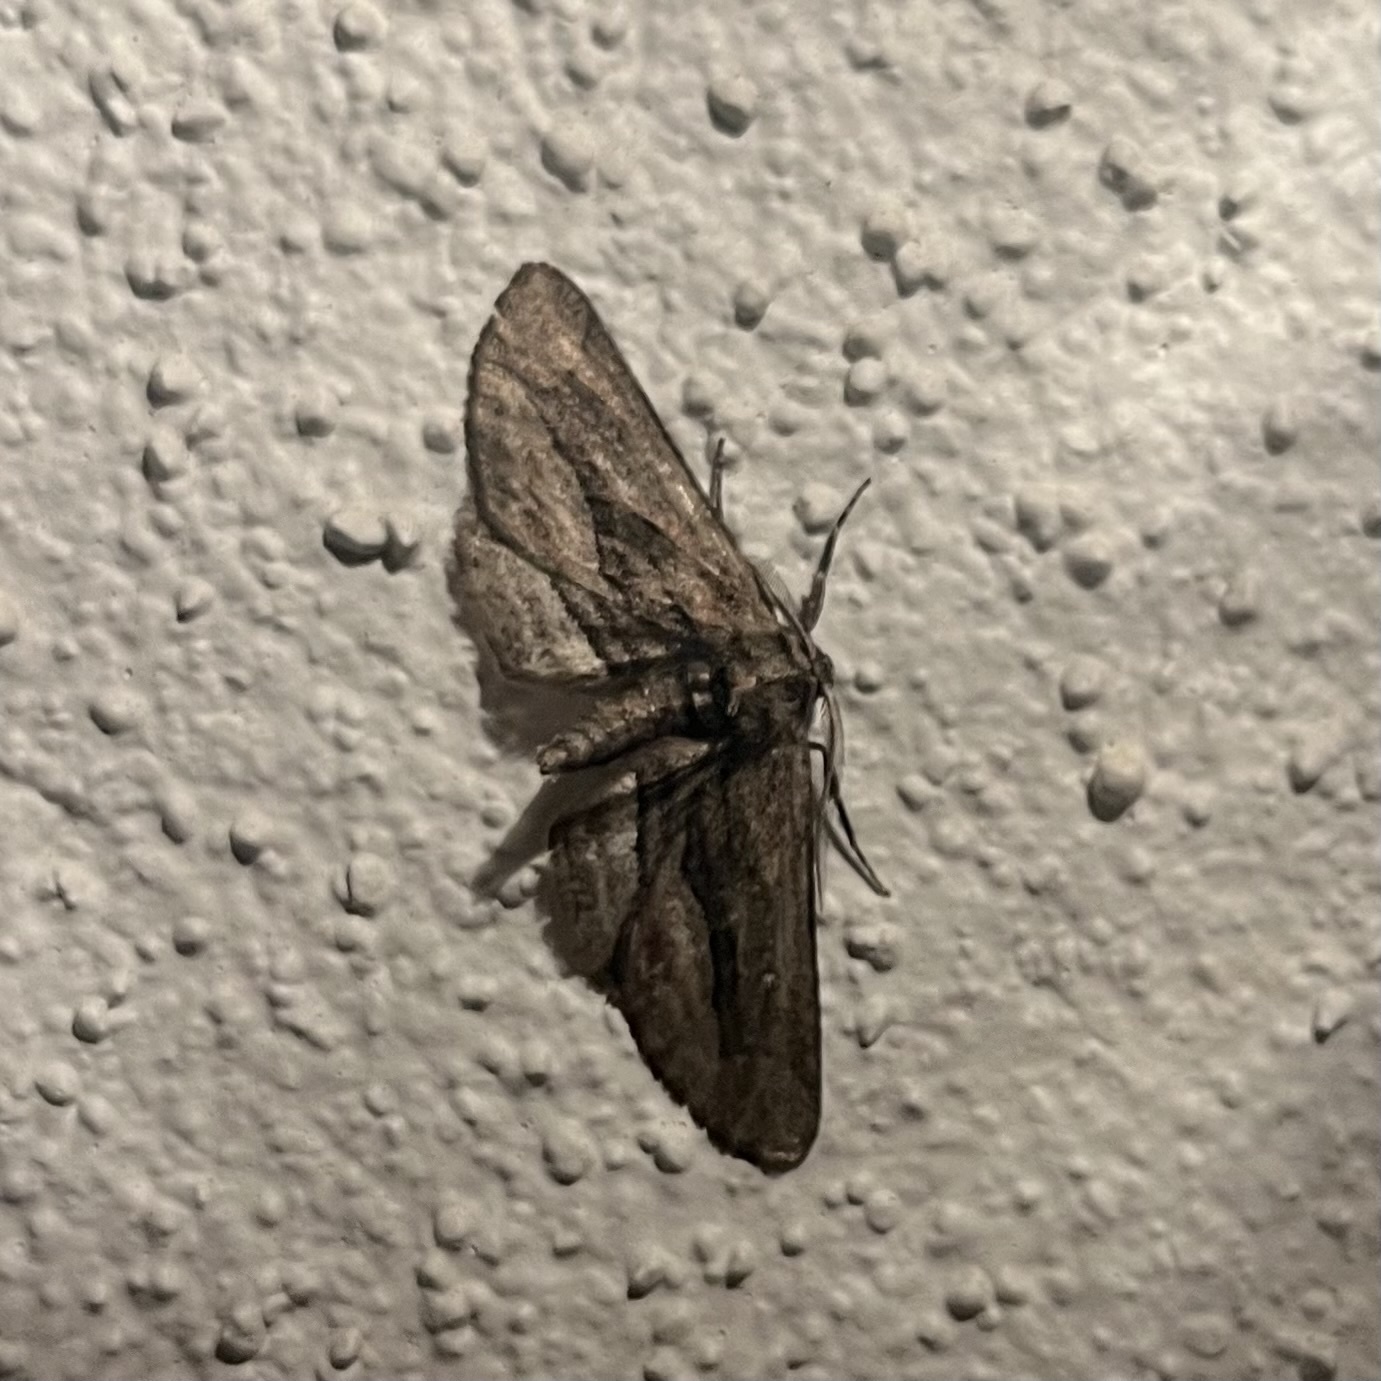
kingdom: Animalia
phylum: Arthropoda
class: Insecta
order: Lepidoptera
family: Geometridae
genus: Holochroa
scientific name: Holochroa dissociarius
